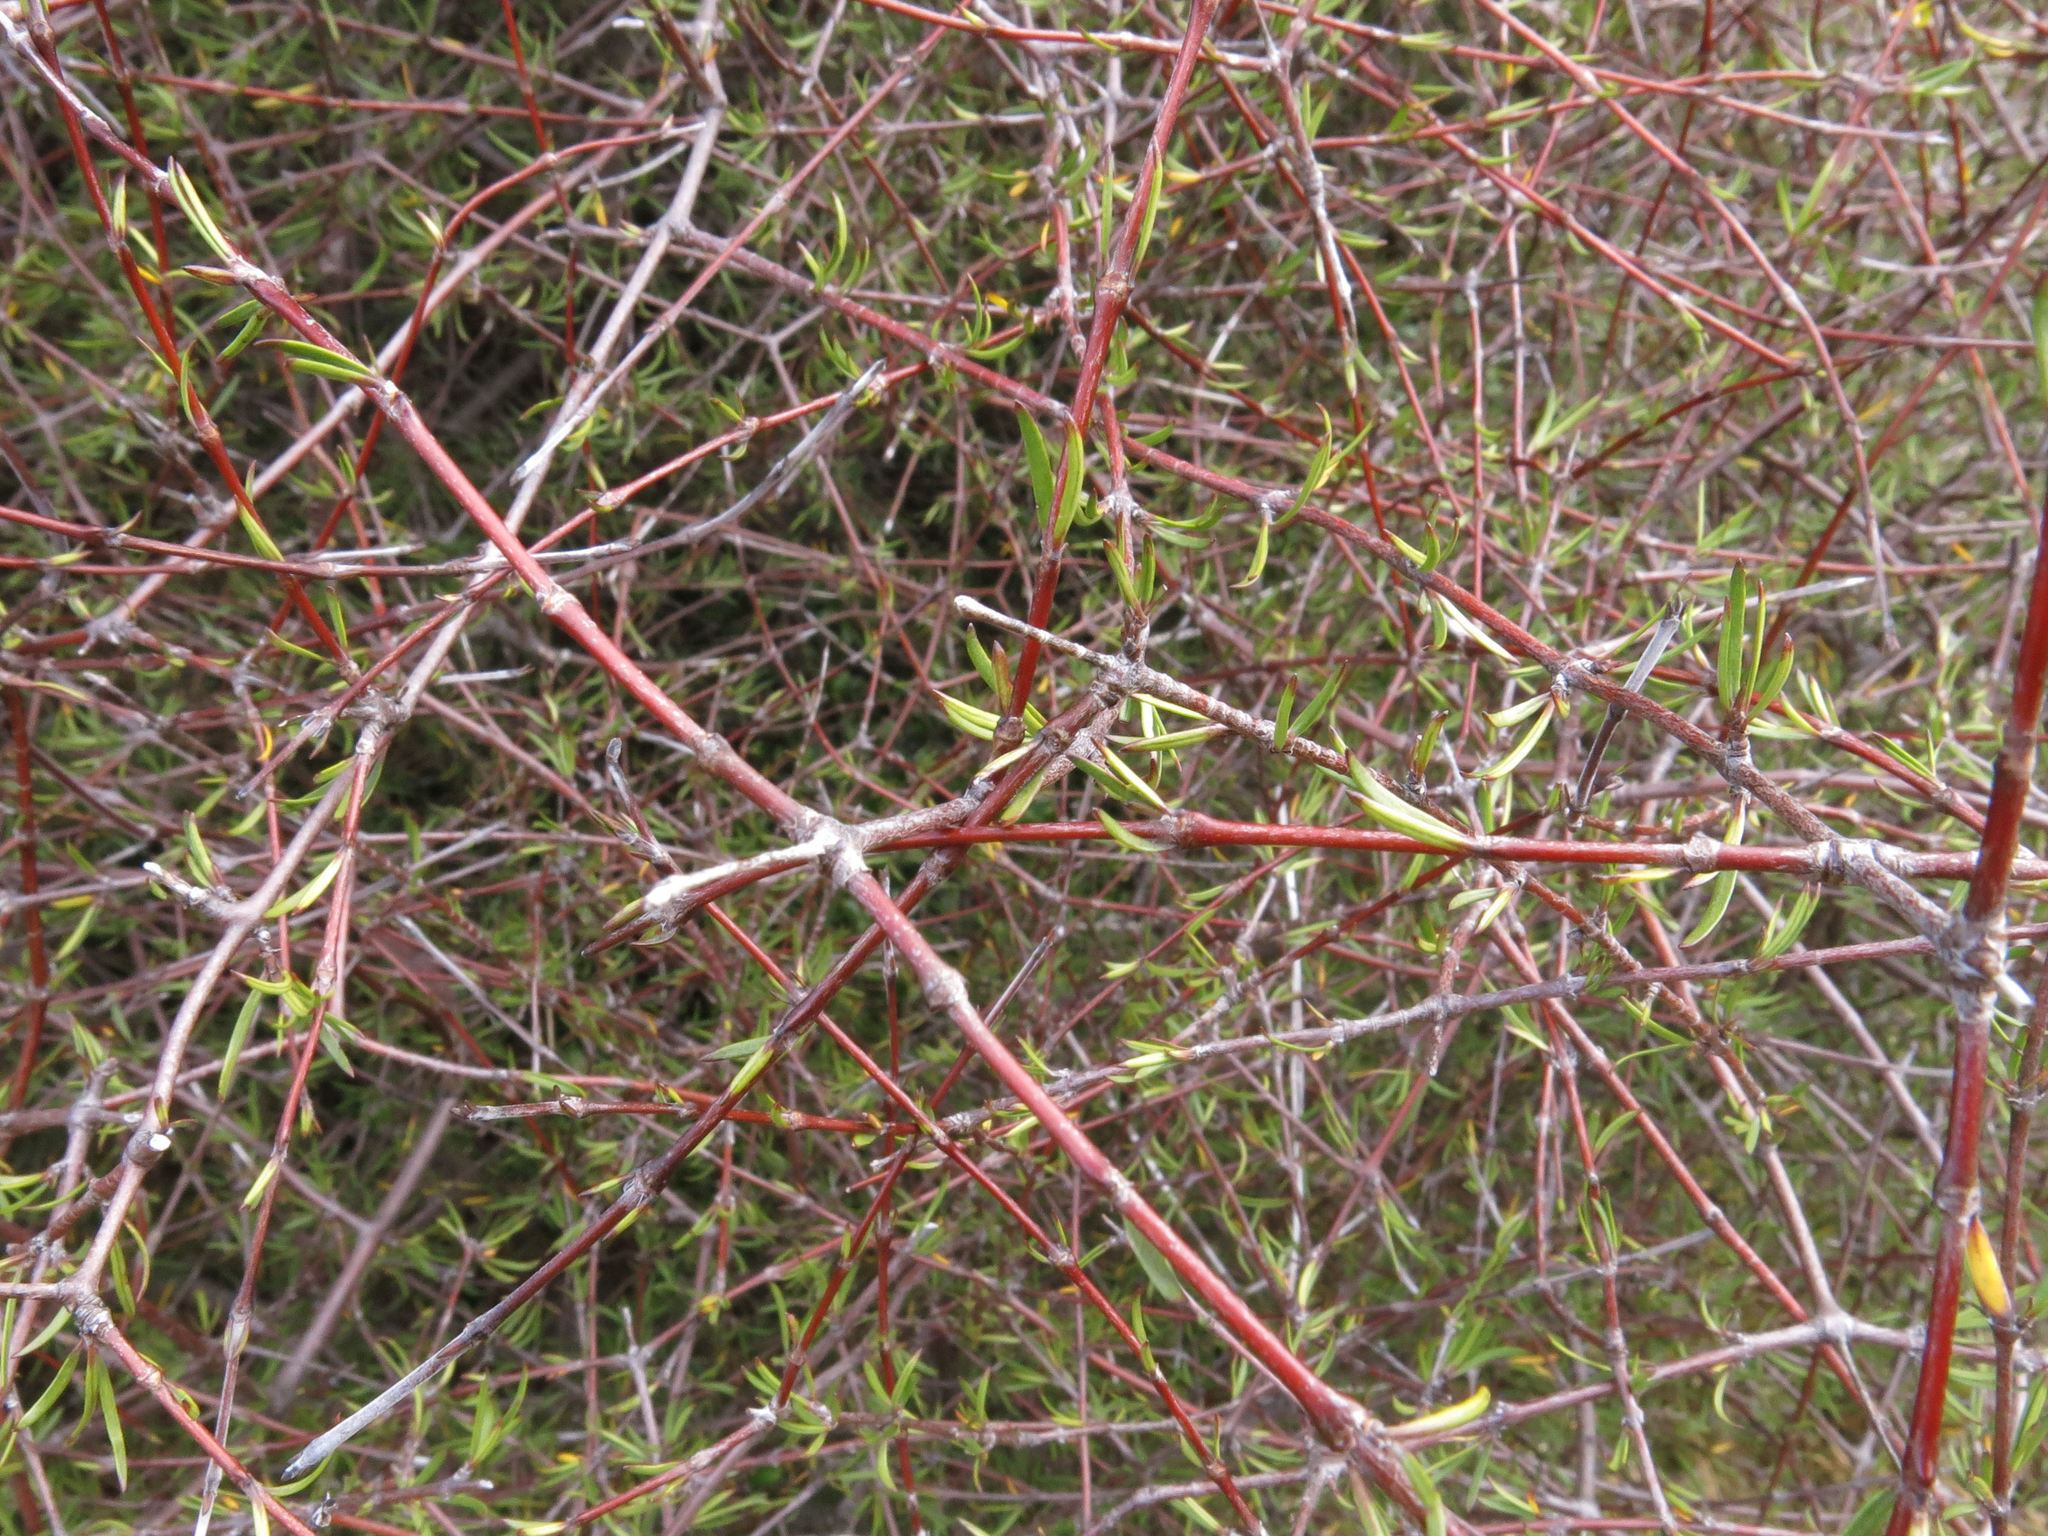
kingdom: Plantae
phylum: Tracheophyta
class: Magnoliopsida
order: Gentianales
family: Rubiaceae
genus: Coprosma
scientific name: Coprosma intertexta
